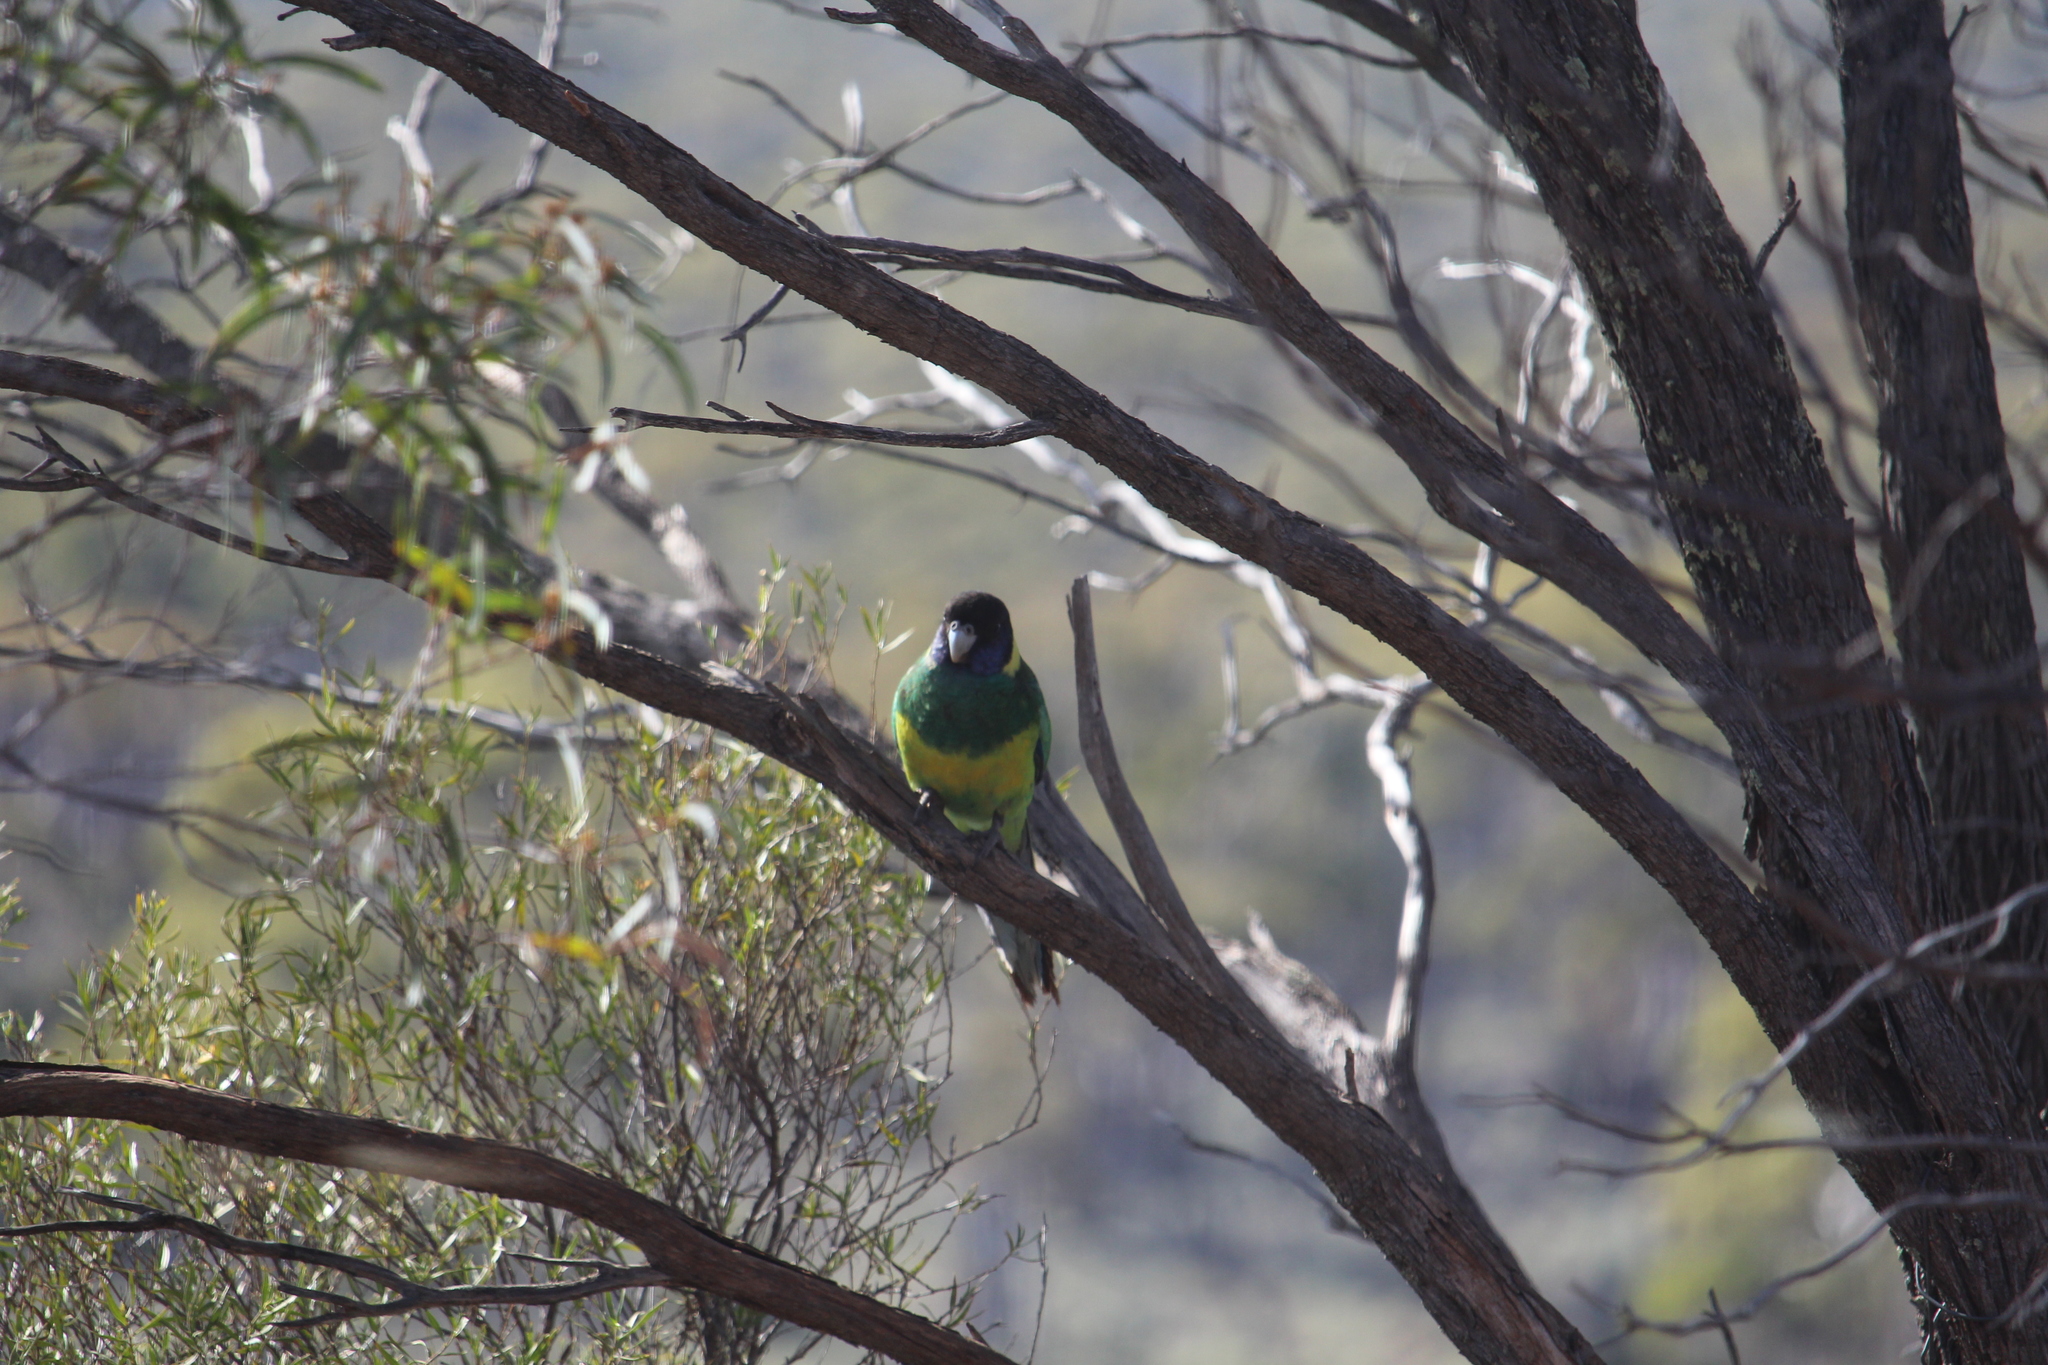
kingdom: Animalia
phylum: Chordata
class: Aves
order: Psittaciformes
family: Psittacidae
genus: Barnardius
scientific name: Barnardius zonarius
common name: Australian ringneck
